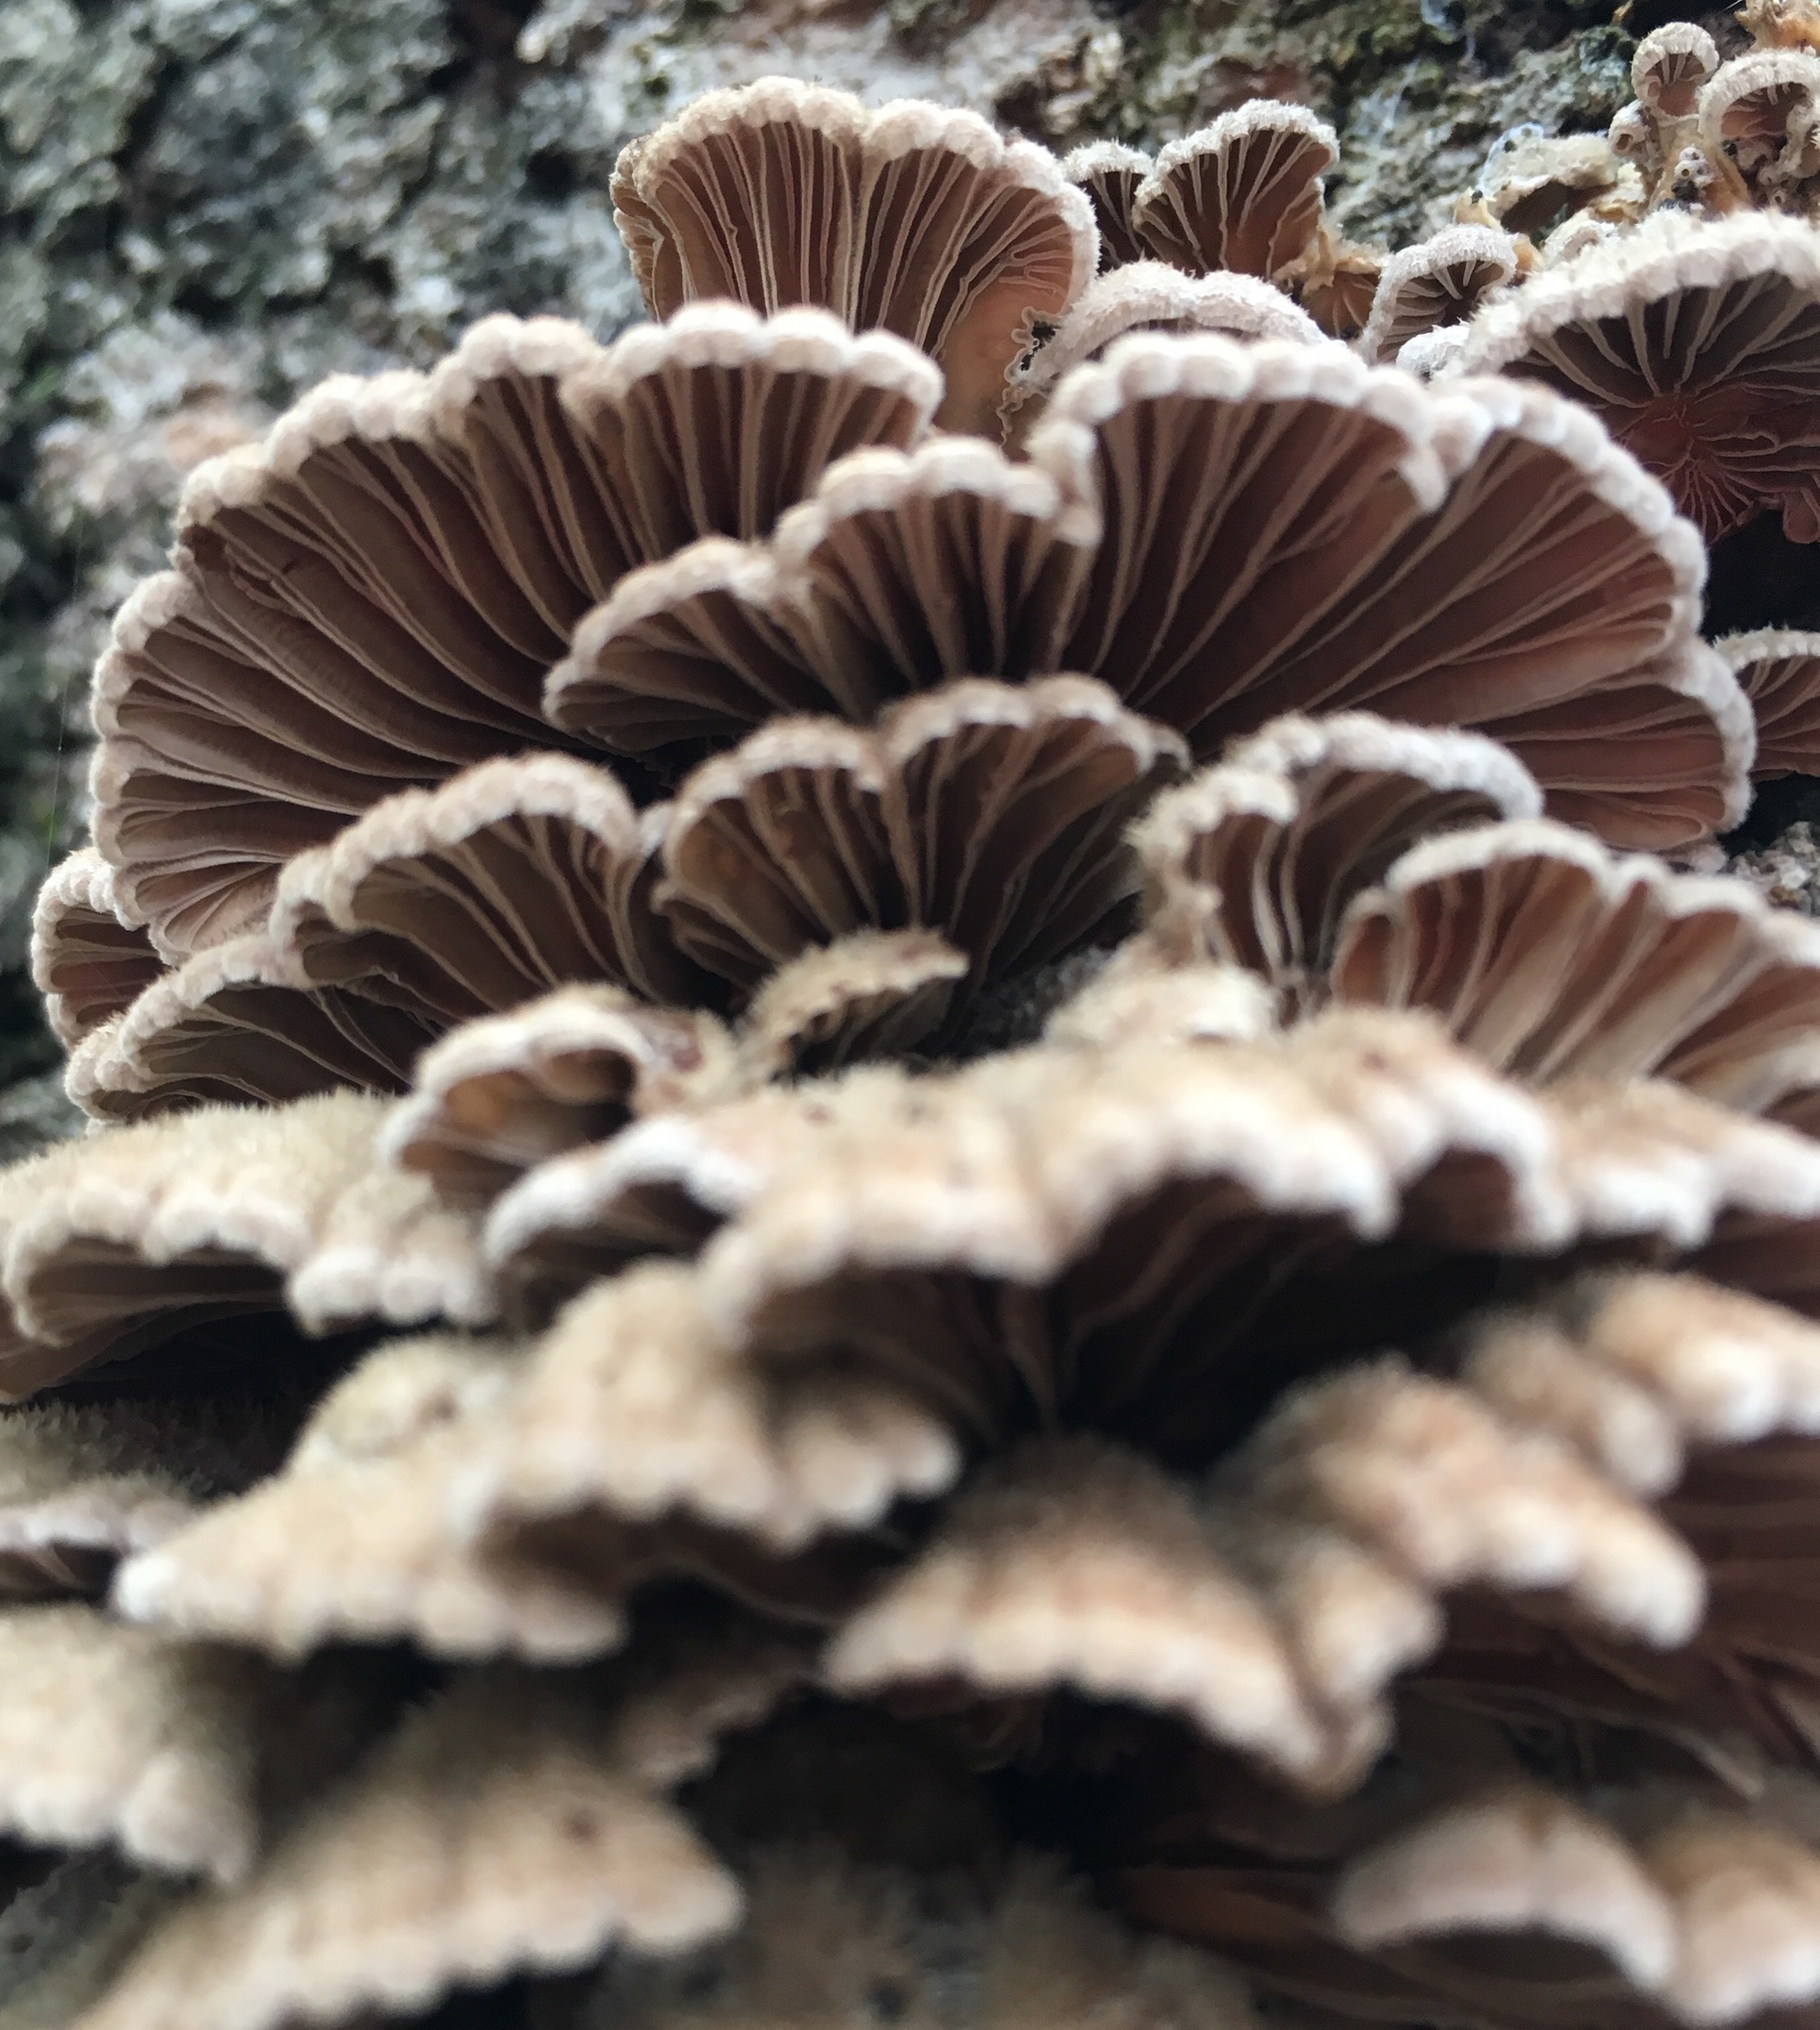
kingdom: Fungi
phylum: Basidiomycota
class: Agaricomycetes
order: Agaricales
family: Schizophyllaceae
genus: Schizophyllum
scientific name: Schizophyllum commune
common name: Common porecrust
